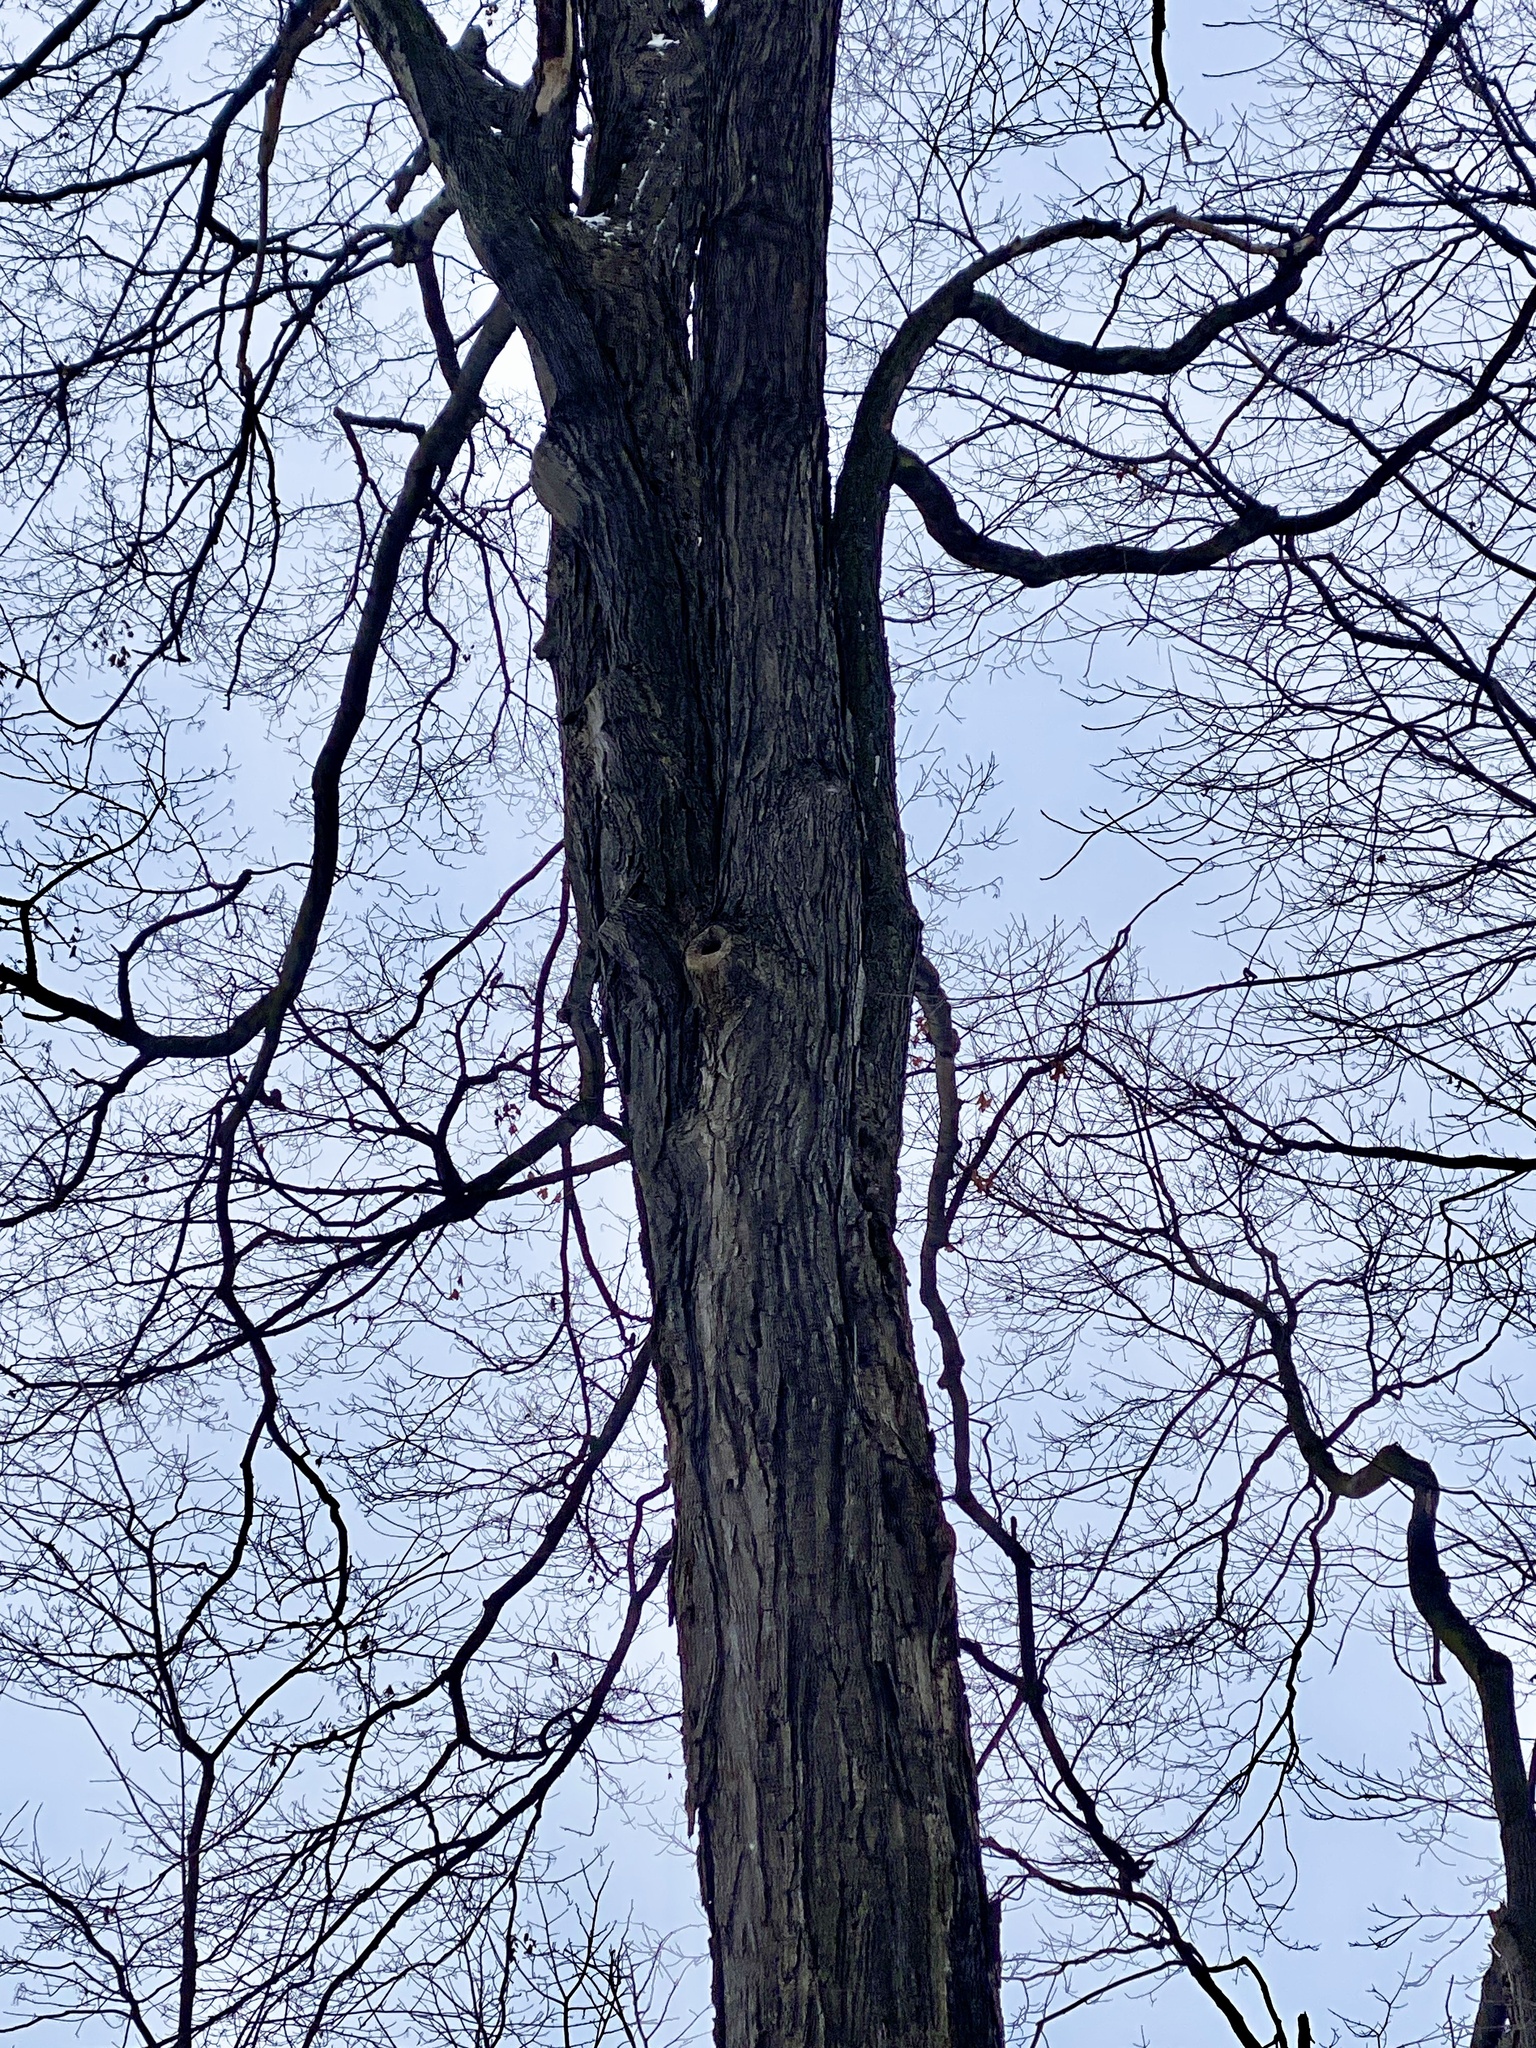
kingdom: Plantae
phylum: Tracheophyta
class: Magnoliopsida
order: Fagales
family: Juglandaceae
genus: Carya
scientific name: Carya ovata
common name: Shagbark hickory
